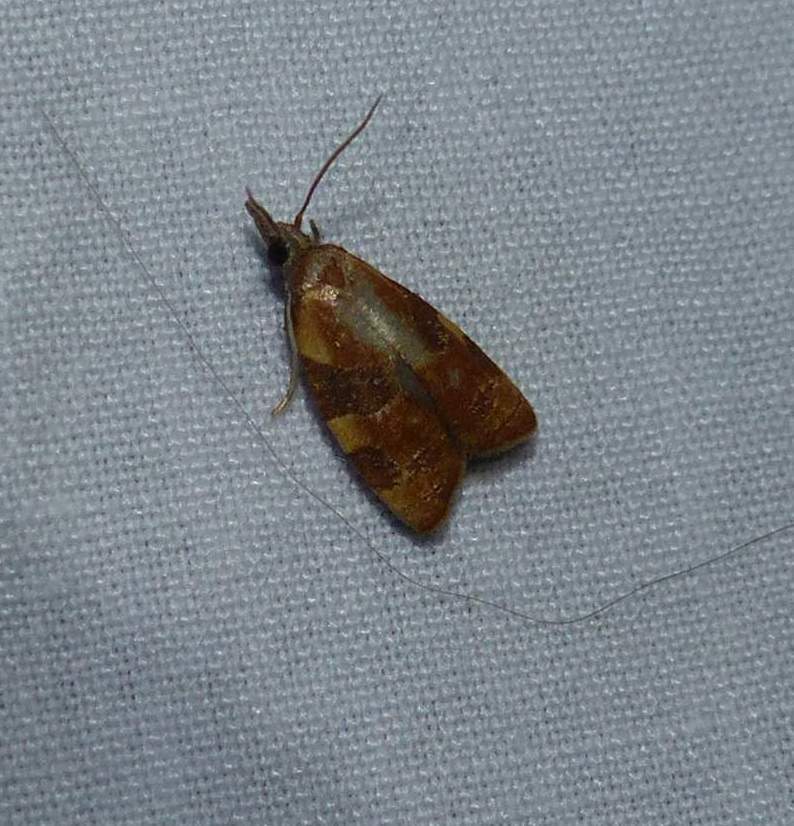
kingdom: Animalia
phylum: Arthropoda
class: Insecta
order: Lepidoptera
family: Tortricidae
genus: Cenopis
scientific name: Cenopis diluticostana
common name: Spring dead-leaf roller moth
